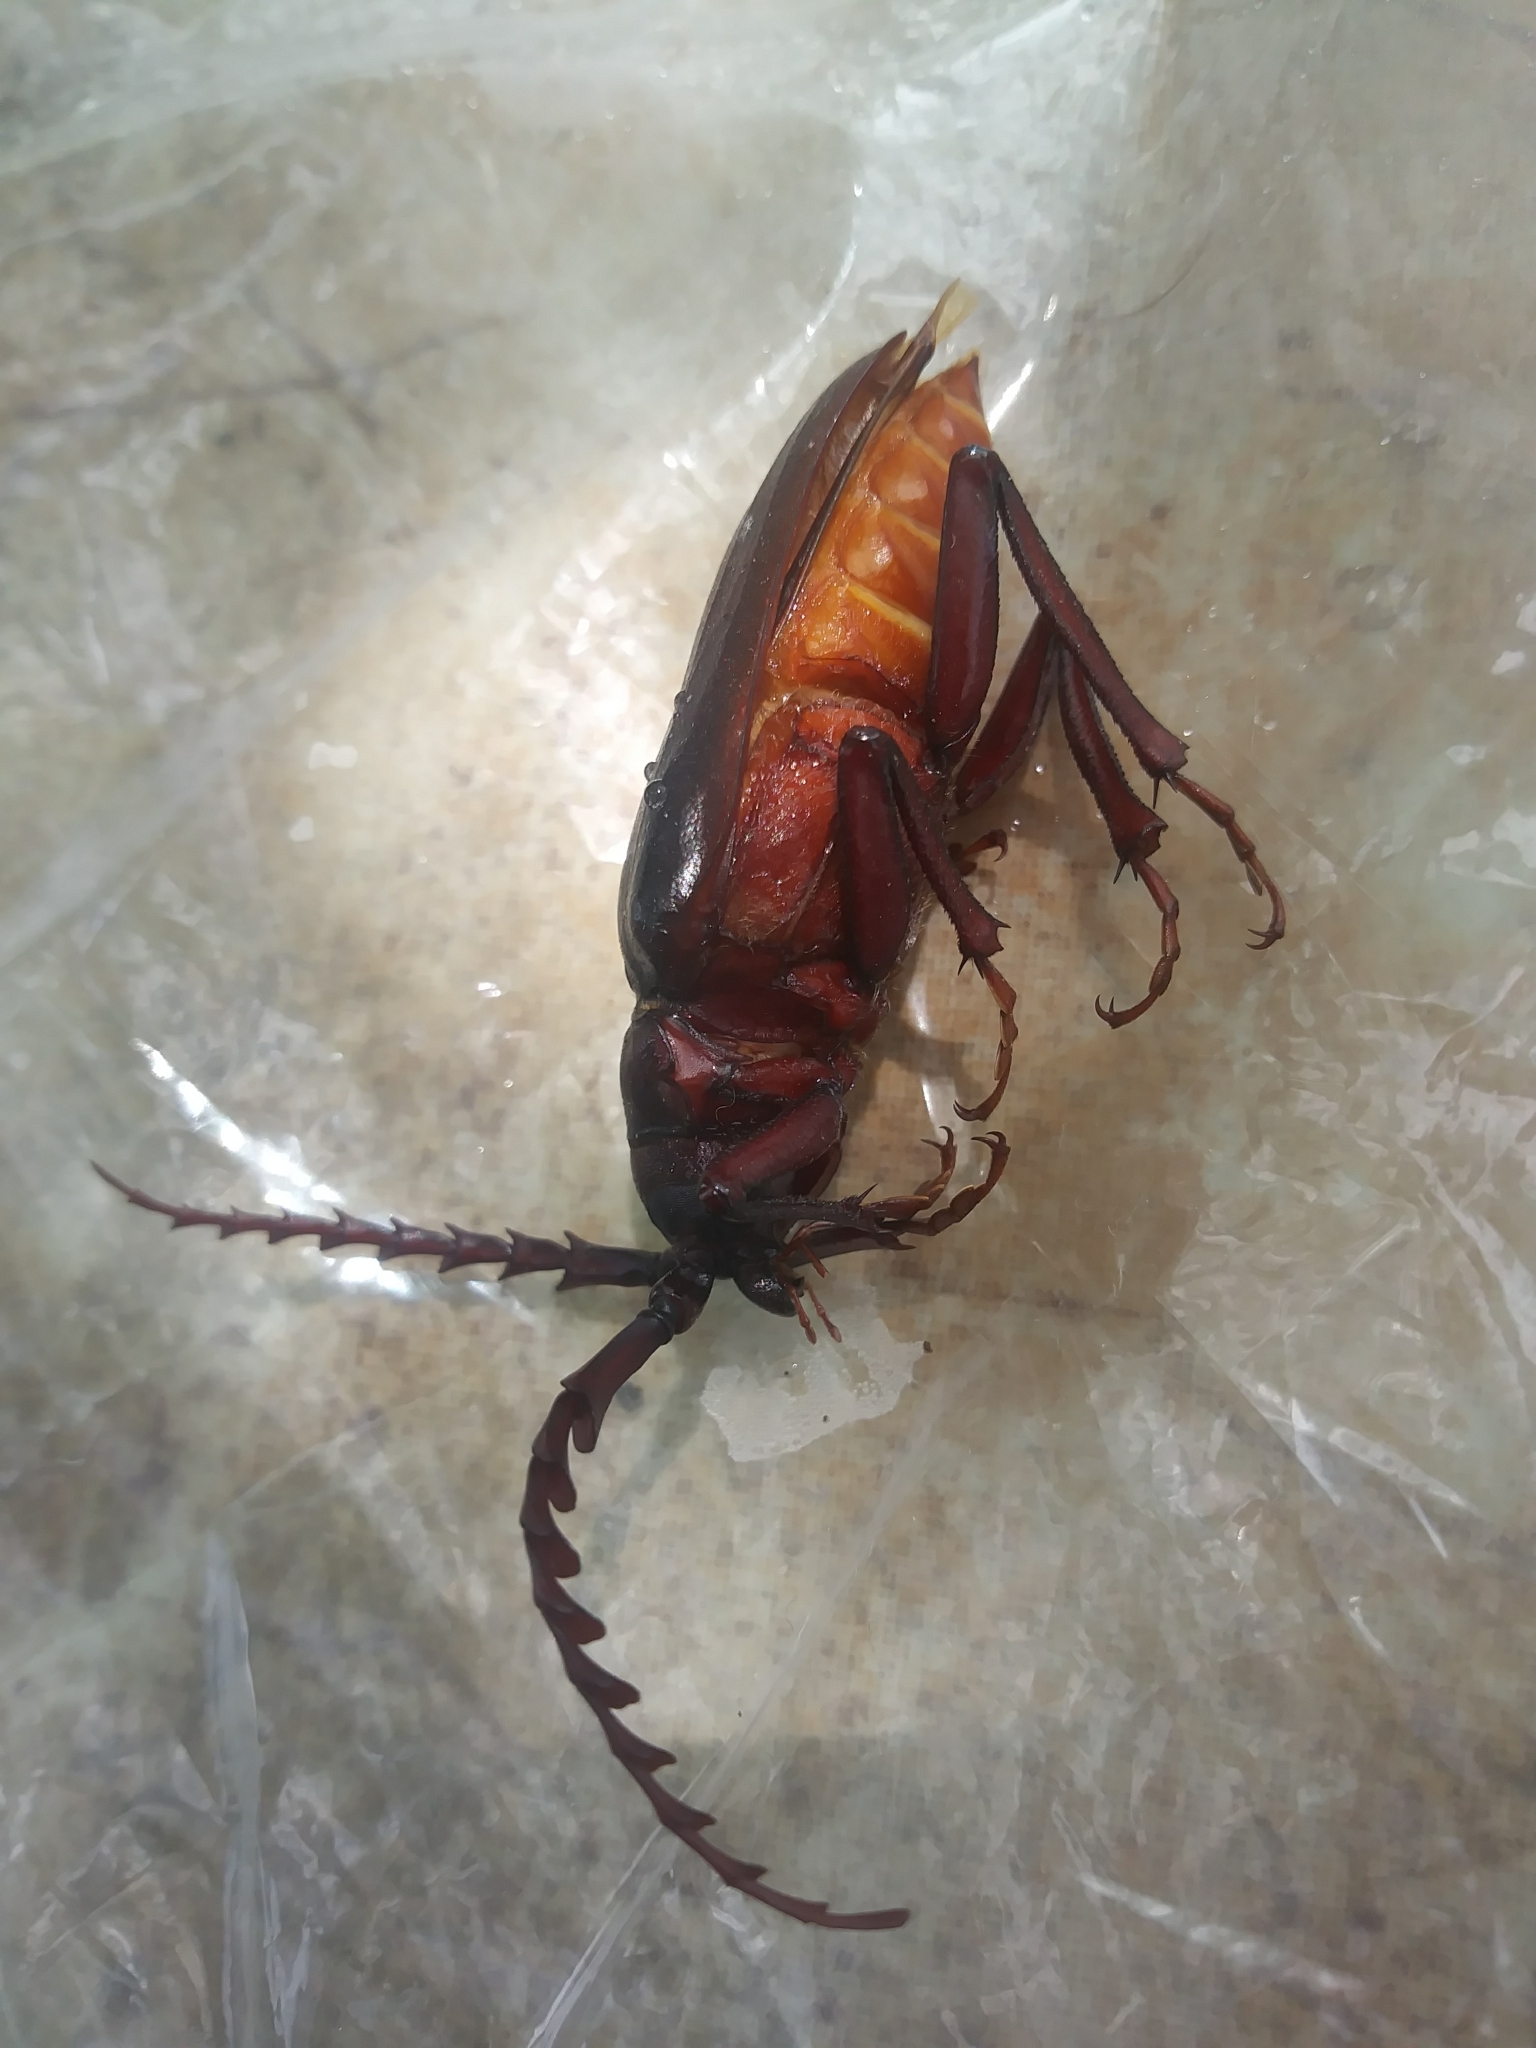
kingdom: Animalia
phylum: Arthropoda
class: Insecta
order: Coleoptera
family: Cerambycidae
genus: Prionus
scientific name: Prionus californicus
